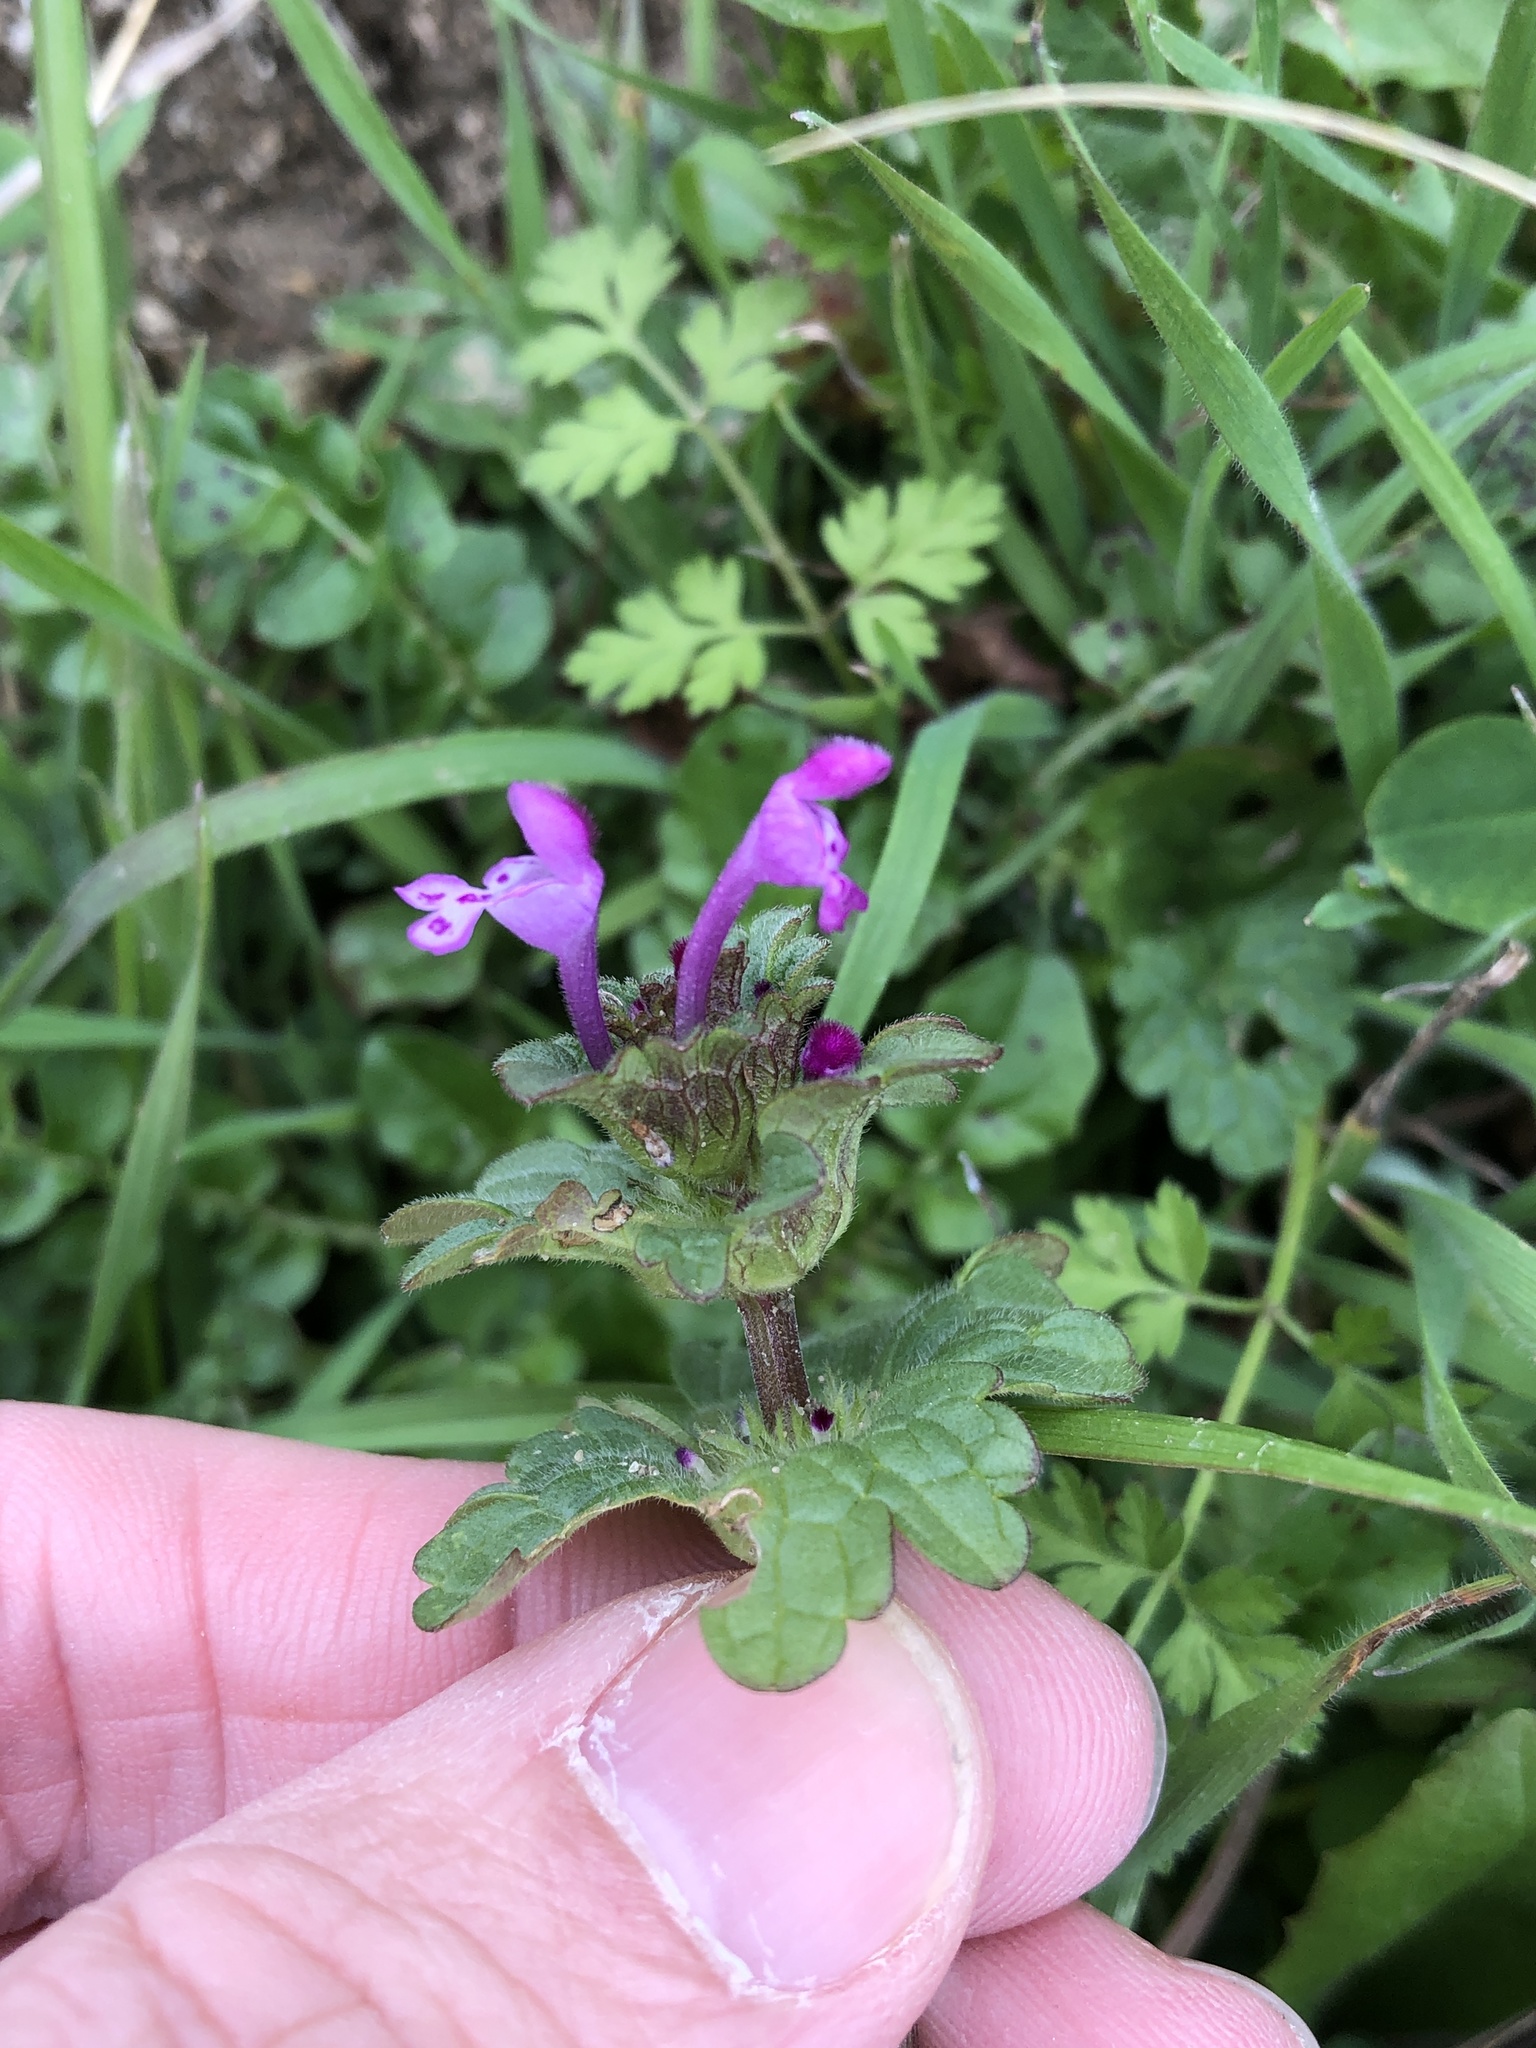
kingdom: Plantae
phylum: Tracheophyta
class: Magnoliopsida
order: Lamiales
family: Lamiaceae
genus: Lamium
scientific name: Lamium amplexicaule
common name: Henbit dead-nettle
